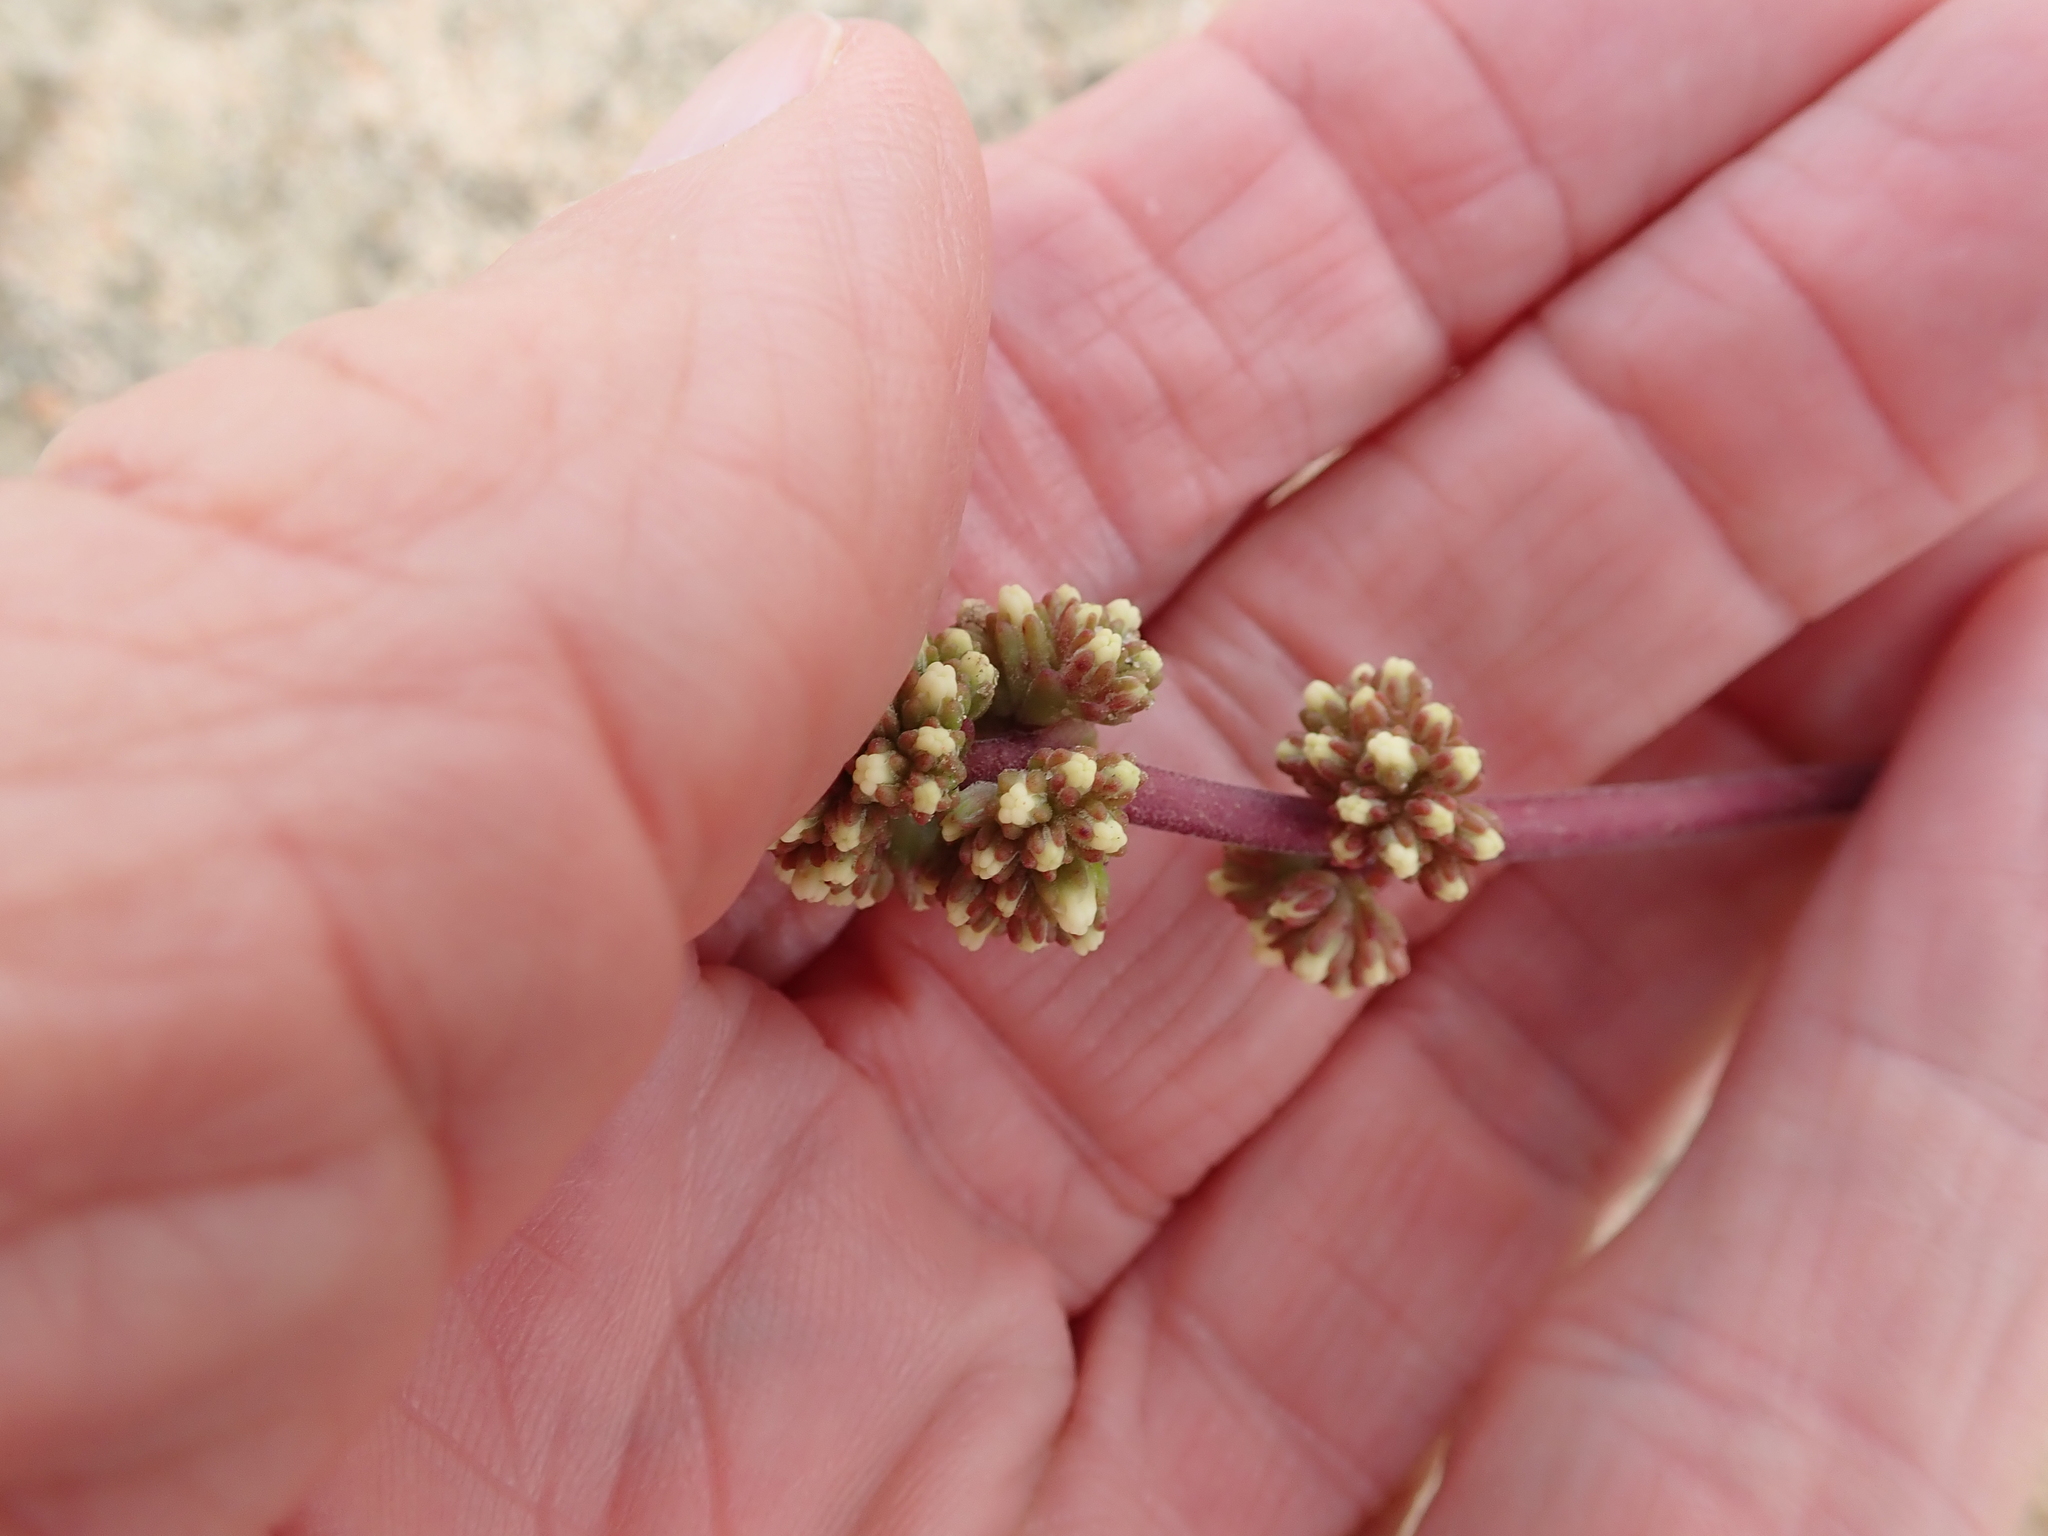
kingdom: Plantae
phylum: Tracheophyta
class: Magnoliopsida
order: Saxifragales
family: Crassulaceae
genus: Crassula
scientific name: Crassula clavata
